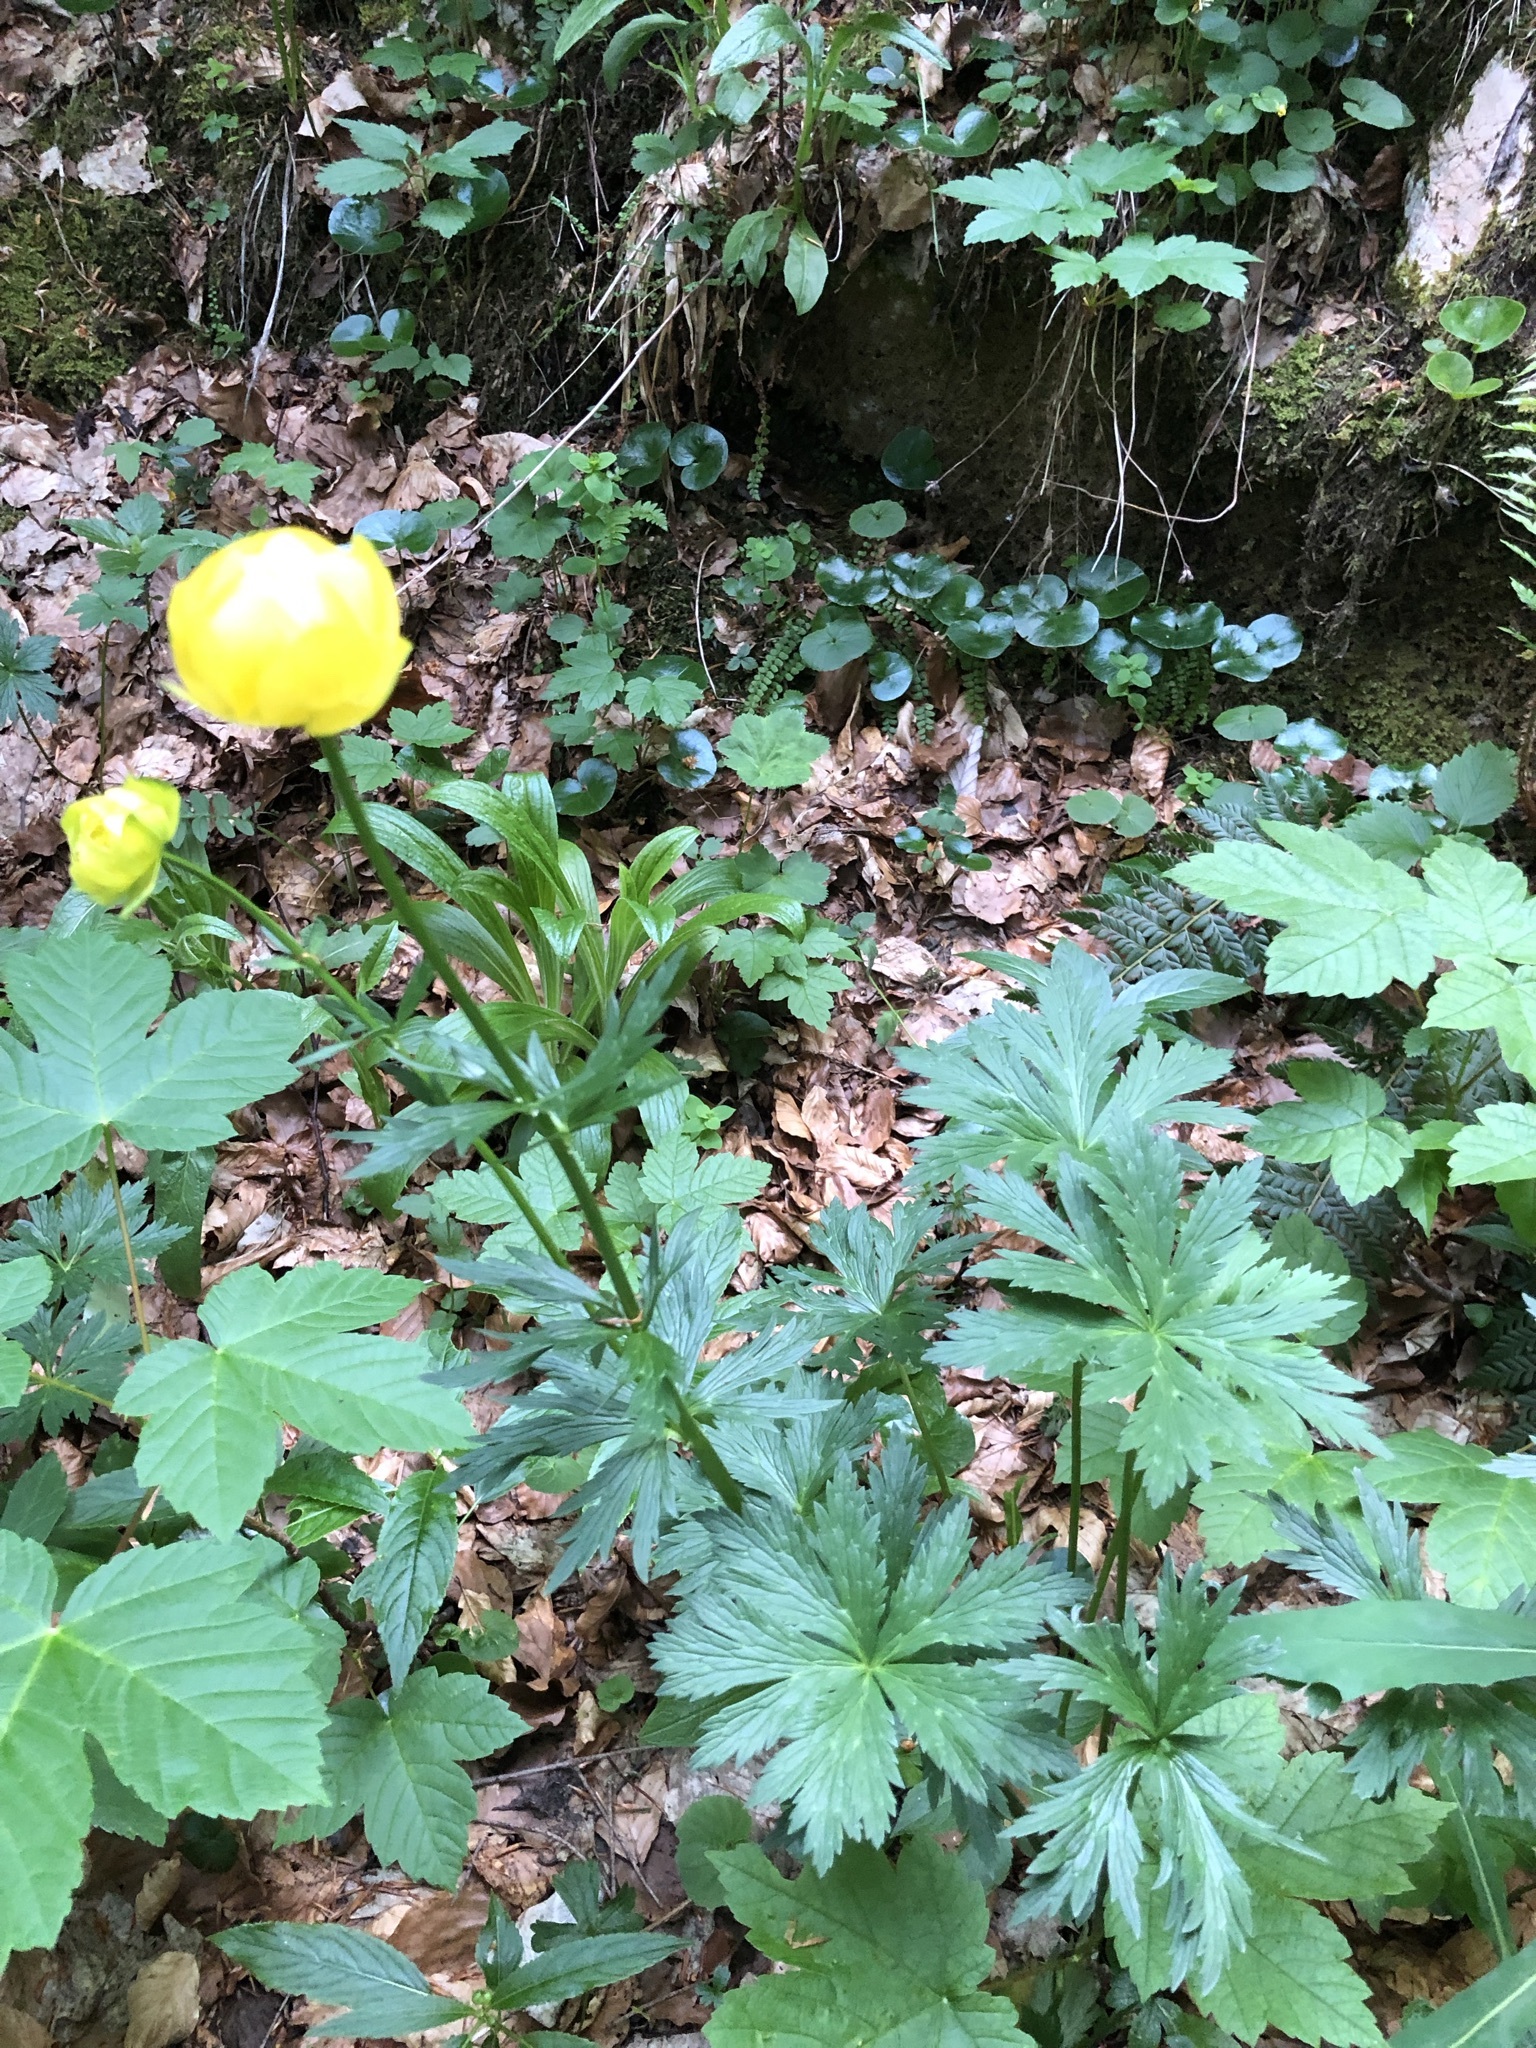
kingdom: Plantae
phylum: Tracheophyta
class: Magnoliopsida
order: Ranunculales
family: Ranunculaceae
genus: Trollius
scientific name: Trollius europaeus
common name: European globeflower
